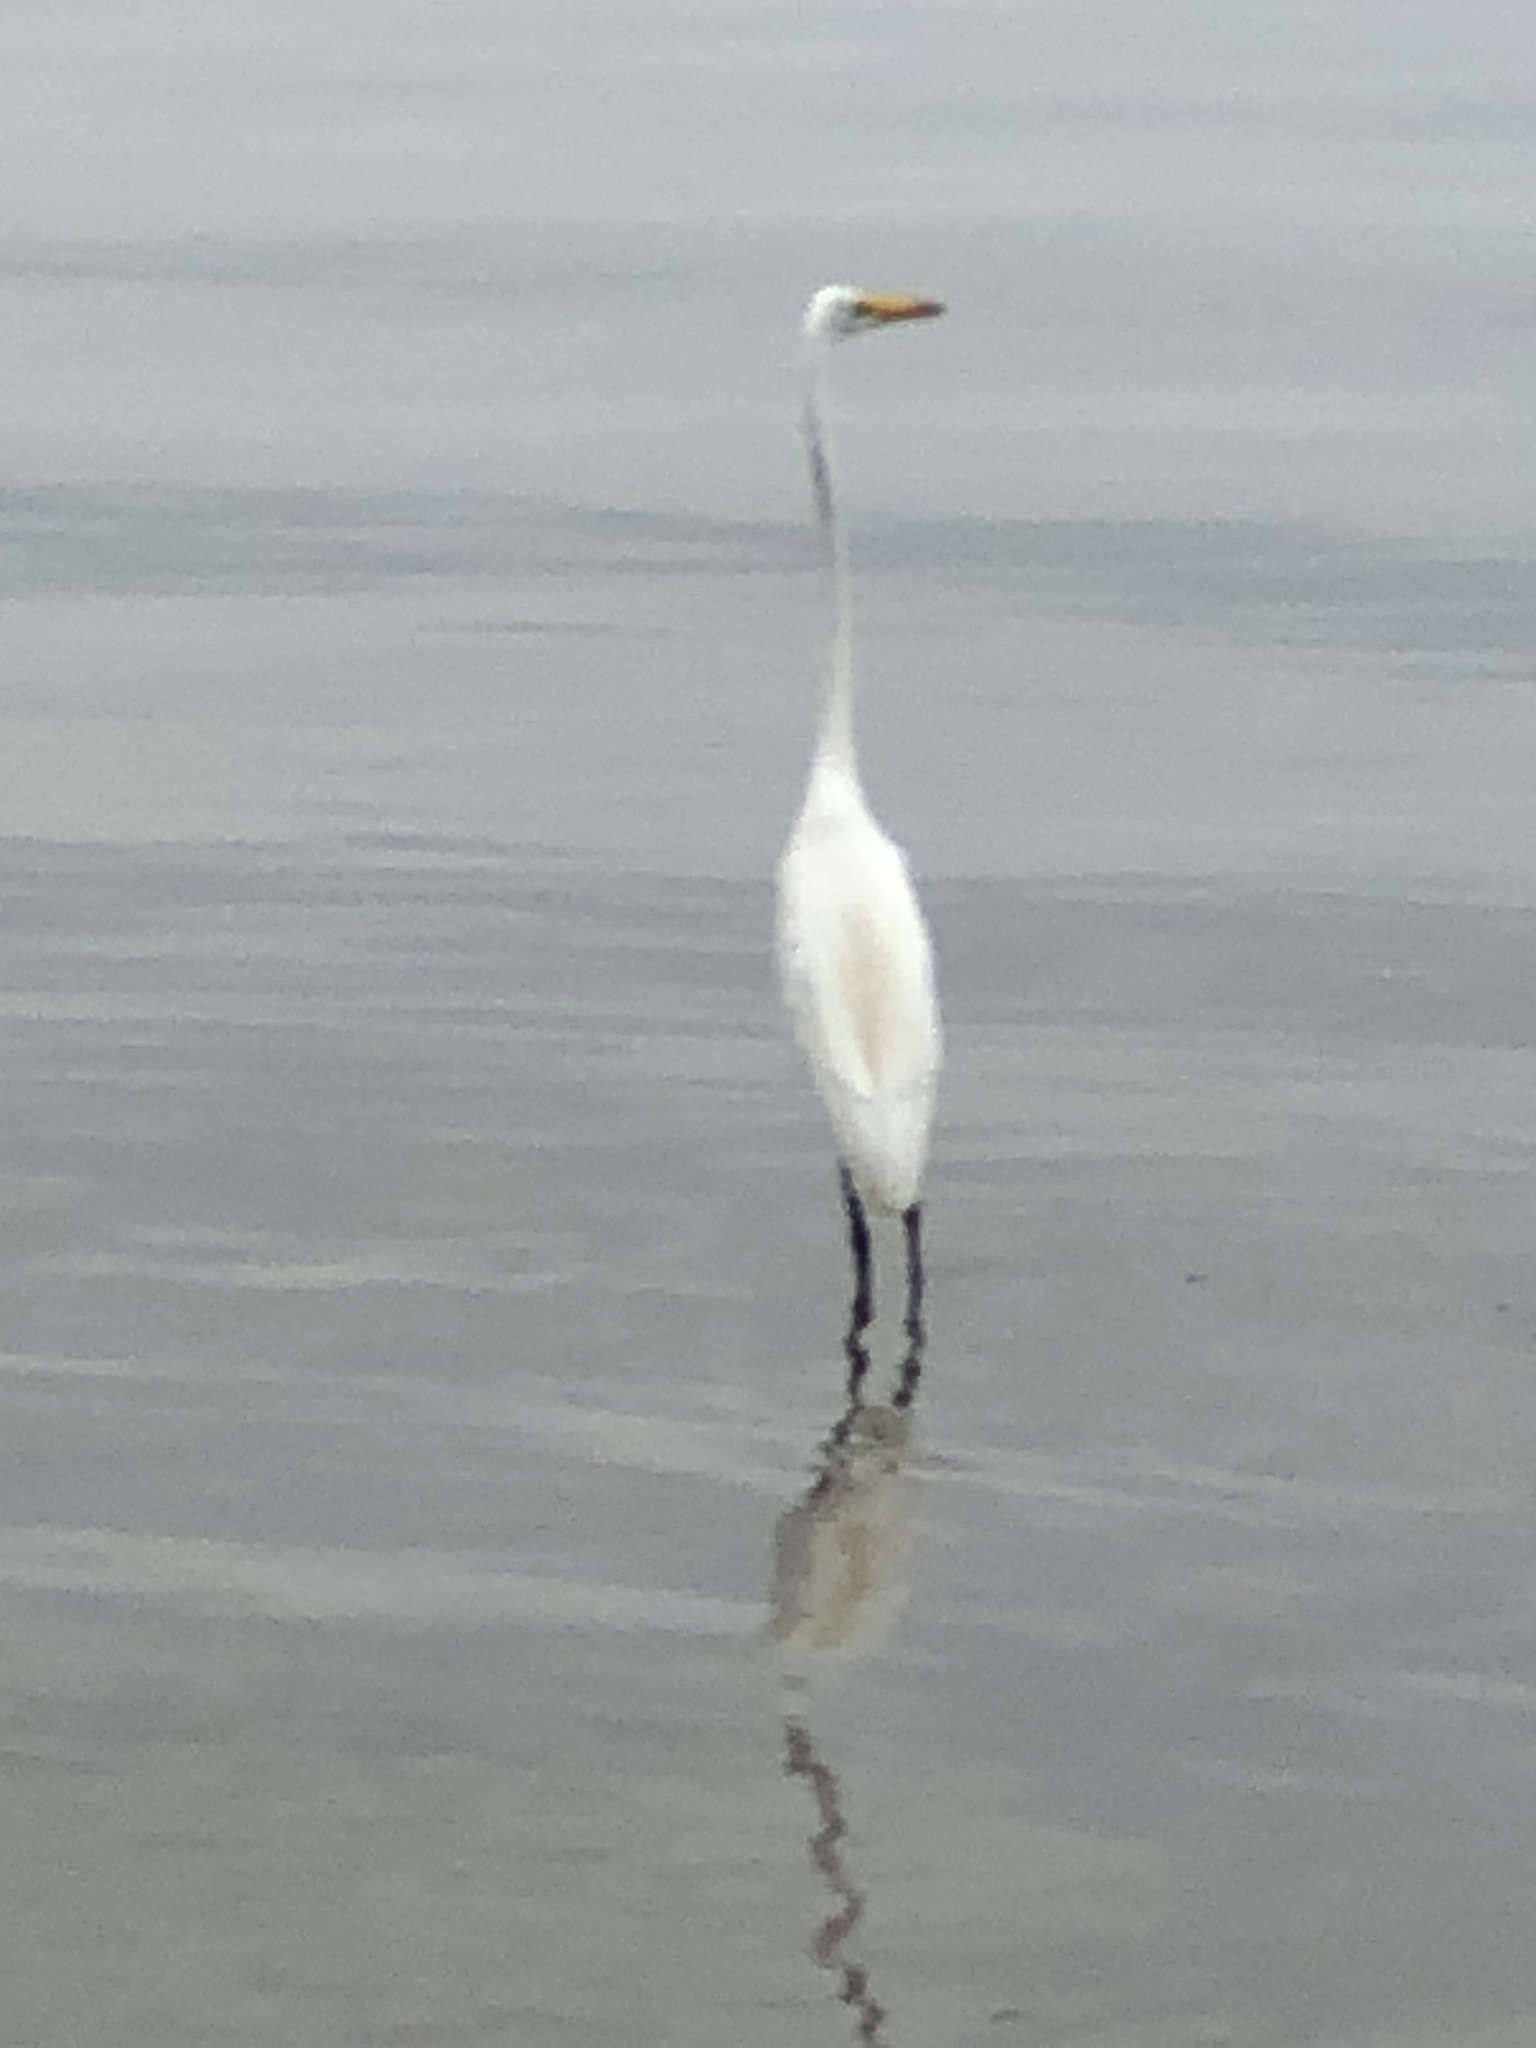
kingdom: Animalia
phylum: Chordata
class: Aves
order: Pelecaniformes
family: Ardeidae
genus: Ardea
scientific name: Ardea alba
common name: Great egret
